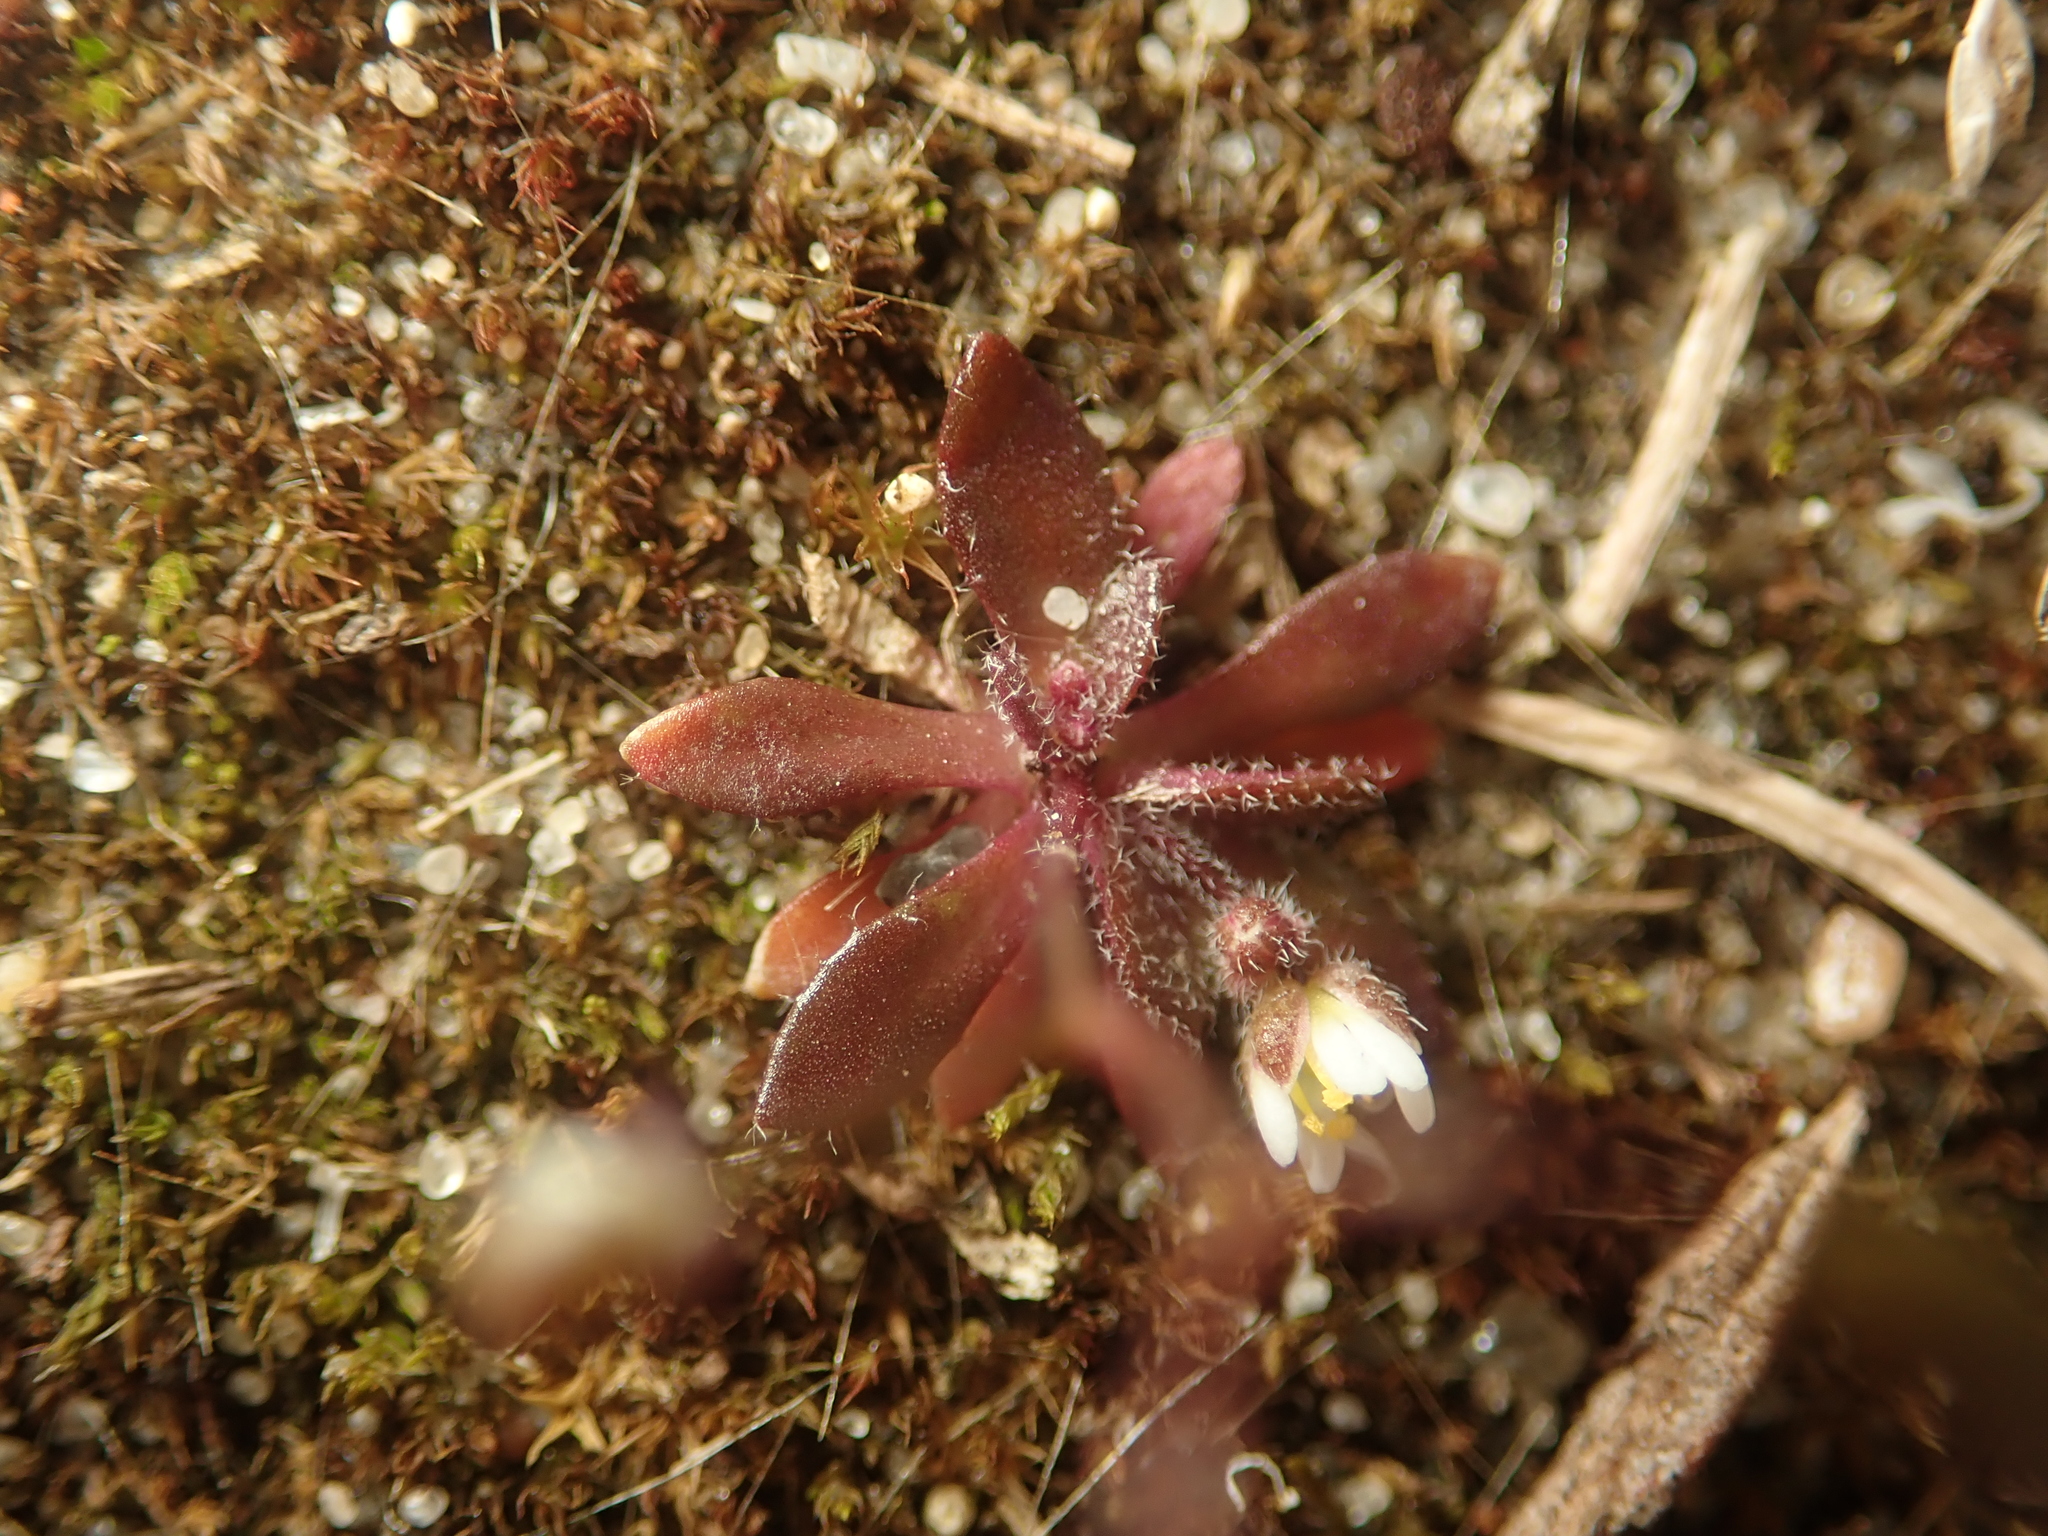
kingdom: Plantae
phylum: Tracheophyta
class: Magnoliopsida
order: Brassicales
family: Brassicaceae
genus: Draba
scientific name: Draba verna
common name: Spring draba
